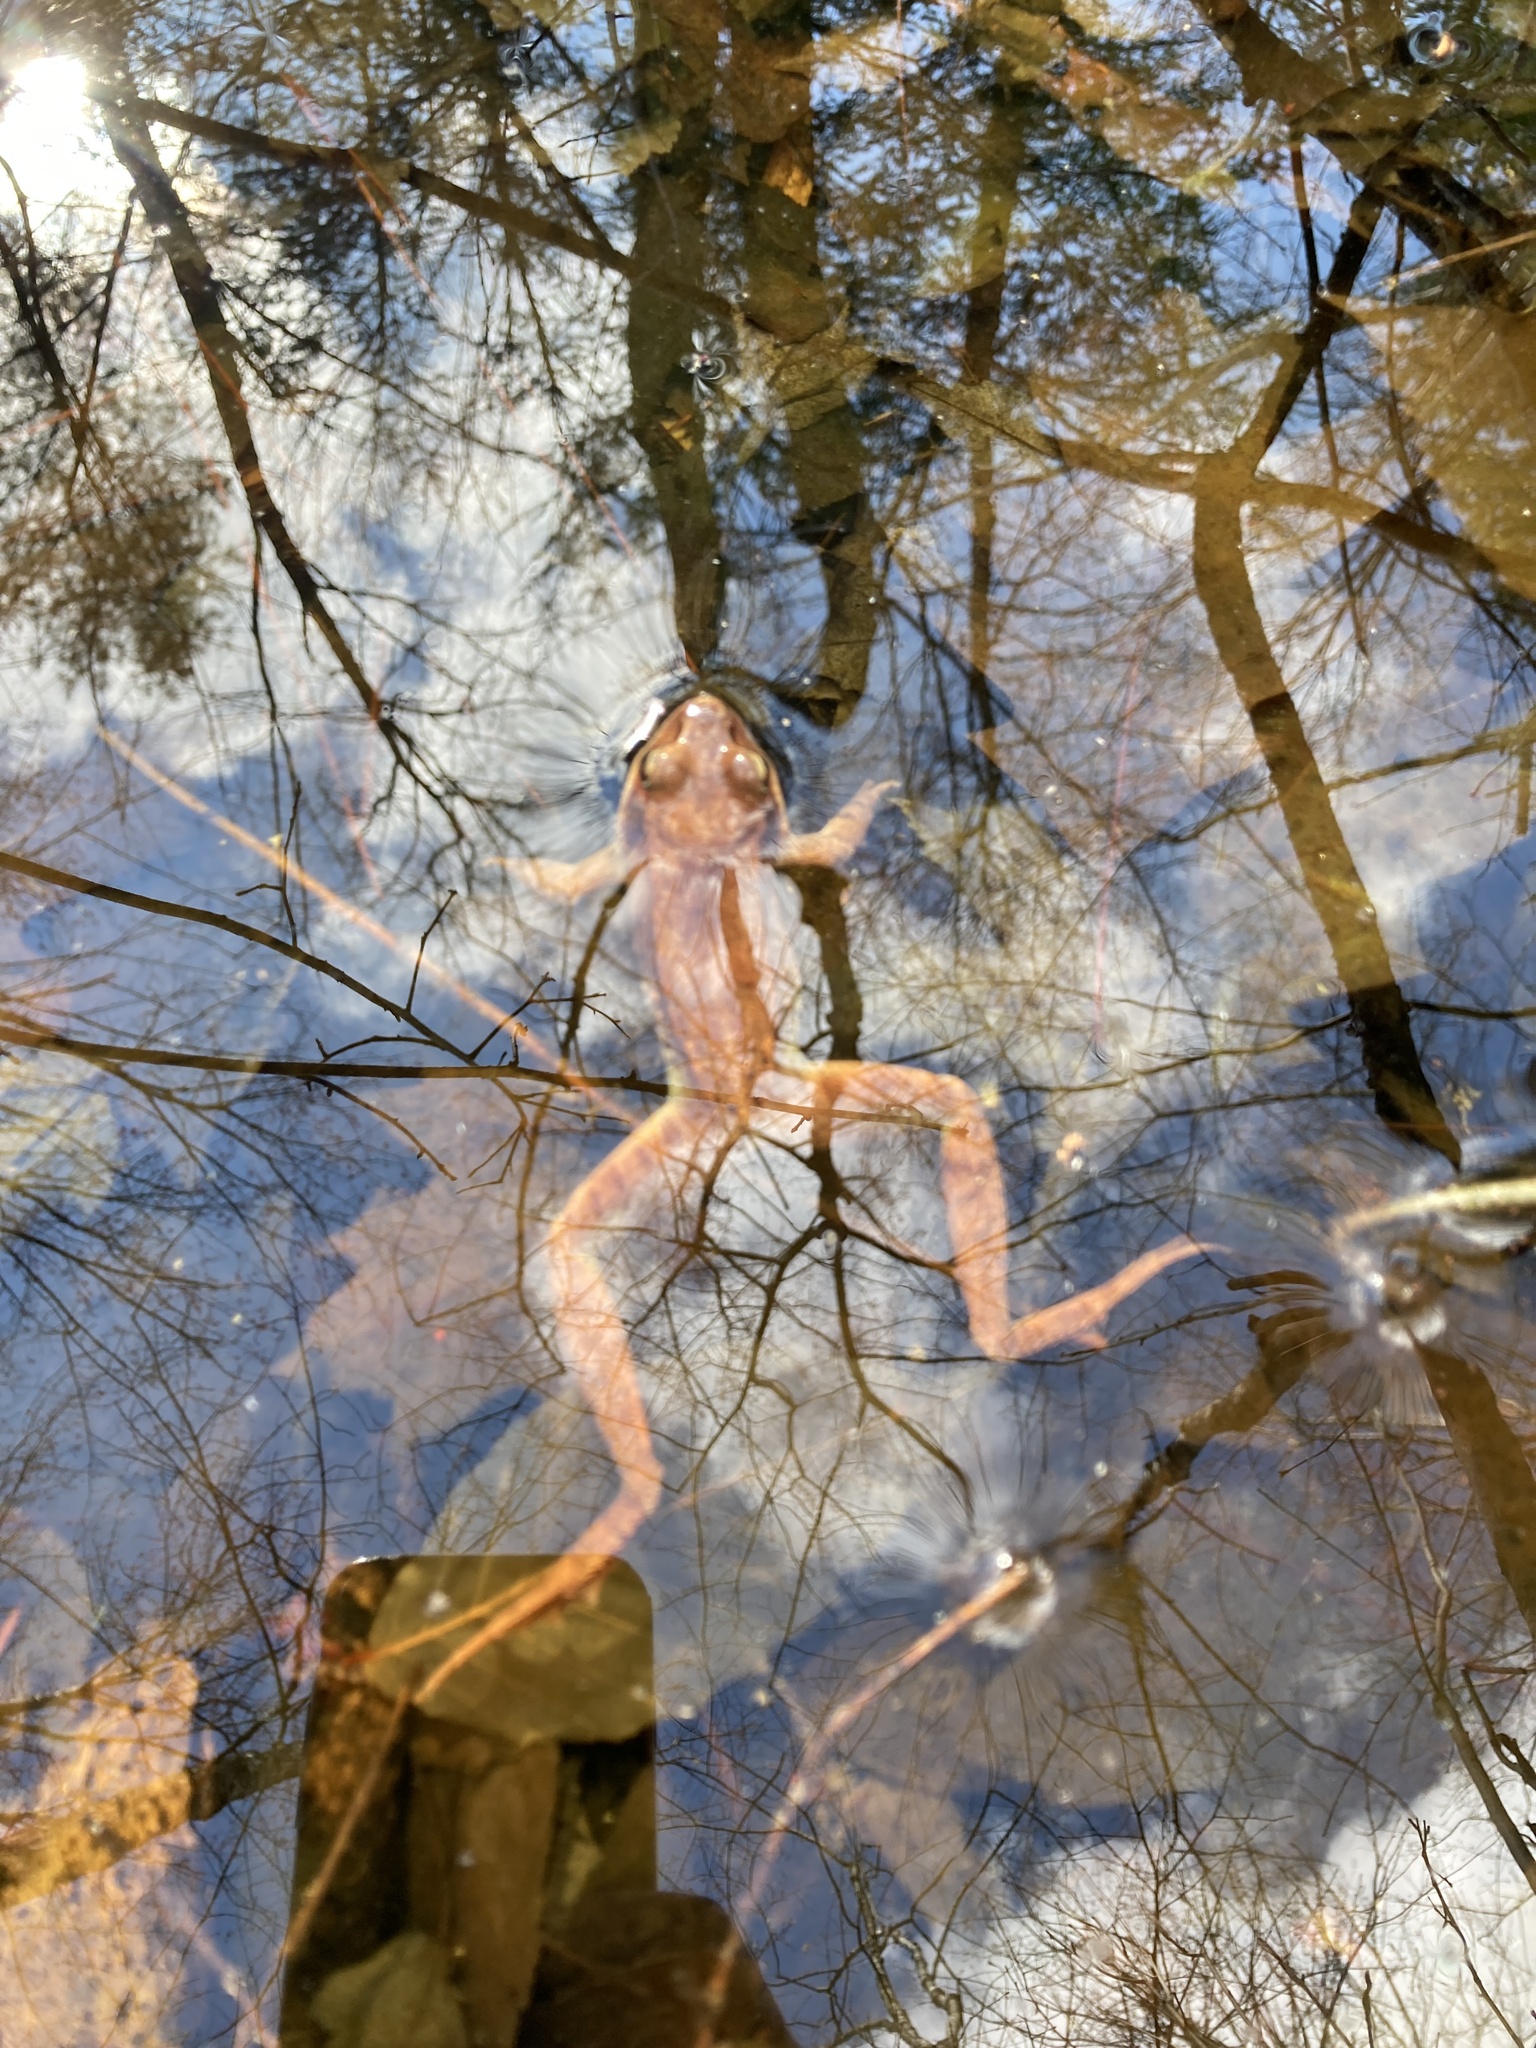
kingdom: Animalia
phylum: Chordata
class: Amphibia
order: Anura
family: Ranidae
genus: Lithobates
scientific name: Lithobates sylvaticus
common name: Wood frog
